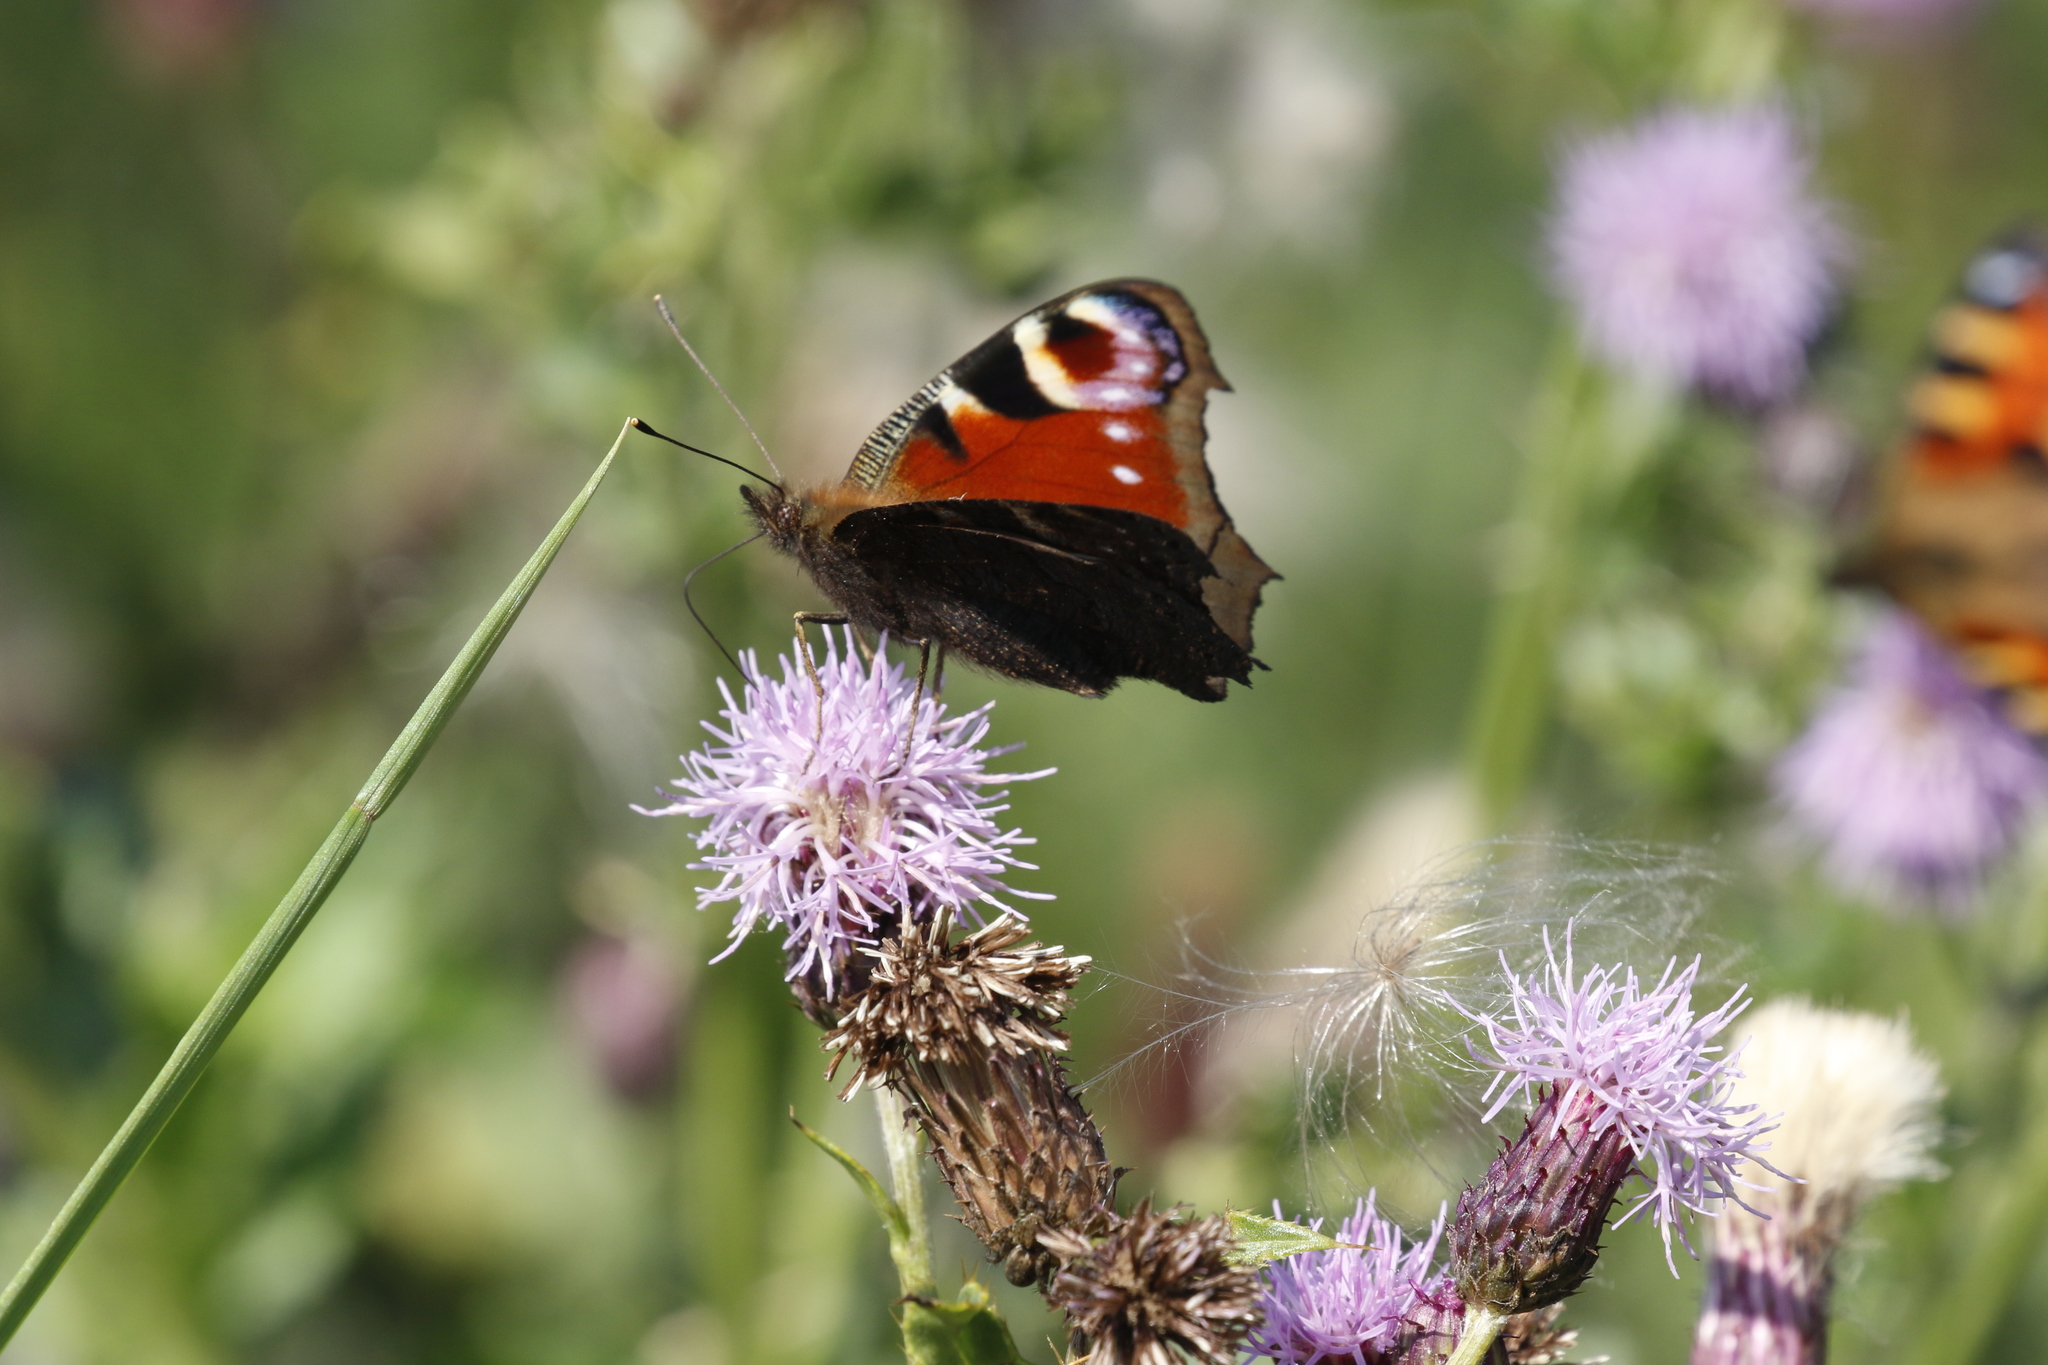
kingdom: Animalia
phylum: Arthropoda
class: Insecta
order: Lepidoptera
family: Nymphalidae
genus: Aglais
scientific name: Aglais io
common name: Peacock
